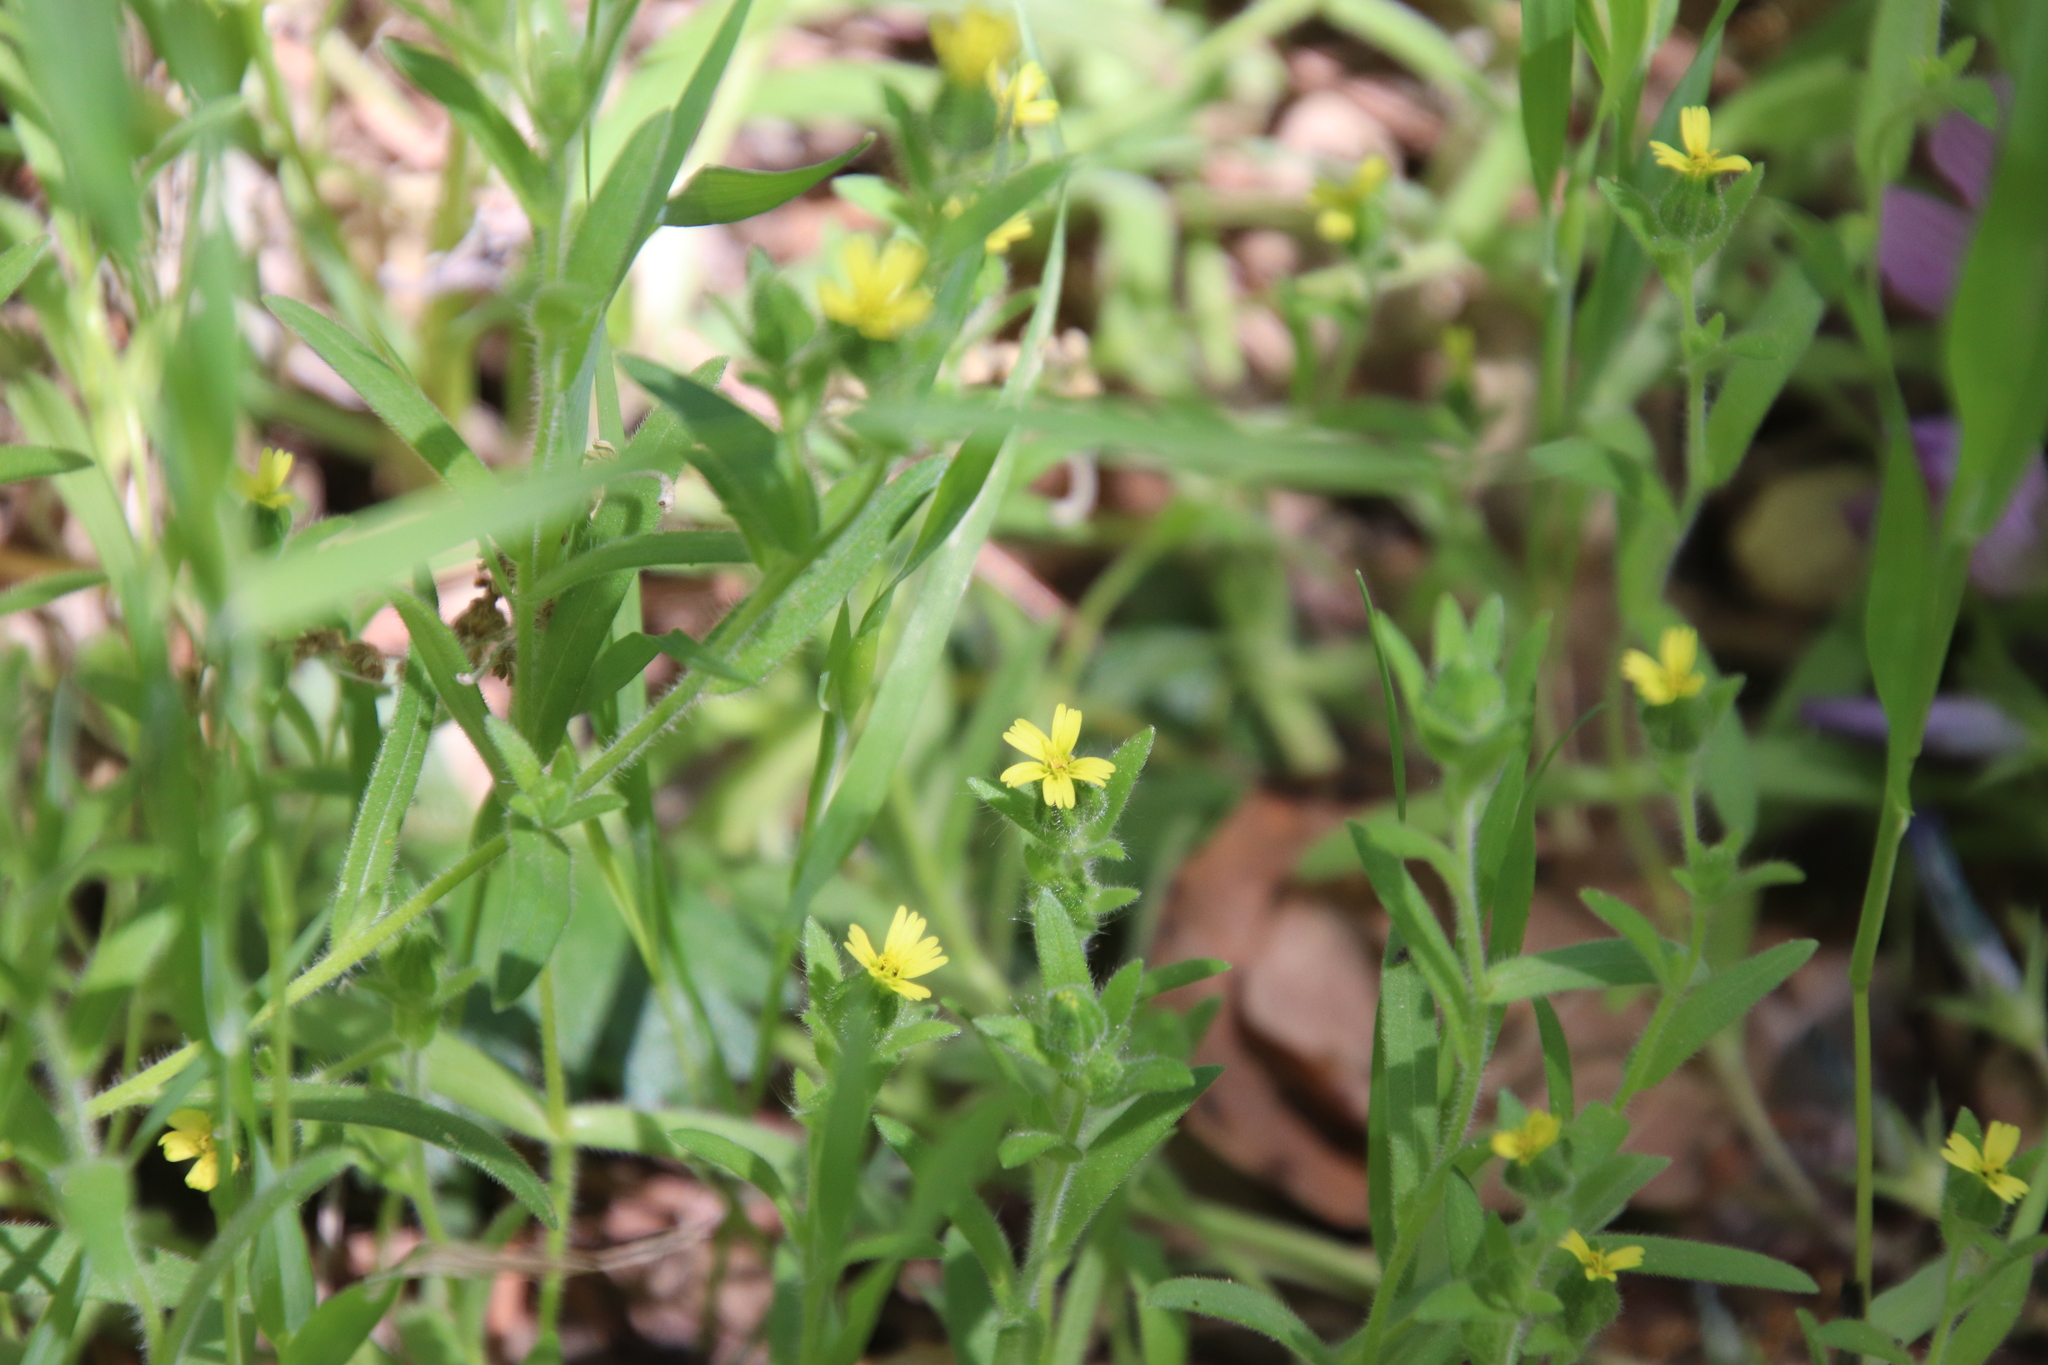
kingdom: Plantae
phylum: Tracheophyta
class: Magnoliopsida
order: Asterales
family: Asteraceae
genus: Madia
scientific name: Madia gracilis
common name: Grassy tarweed
